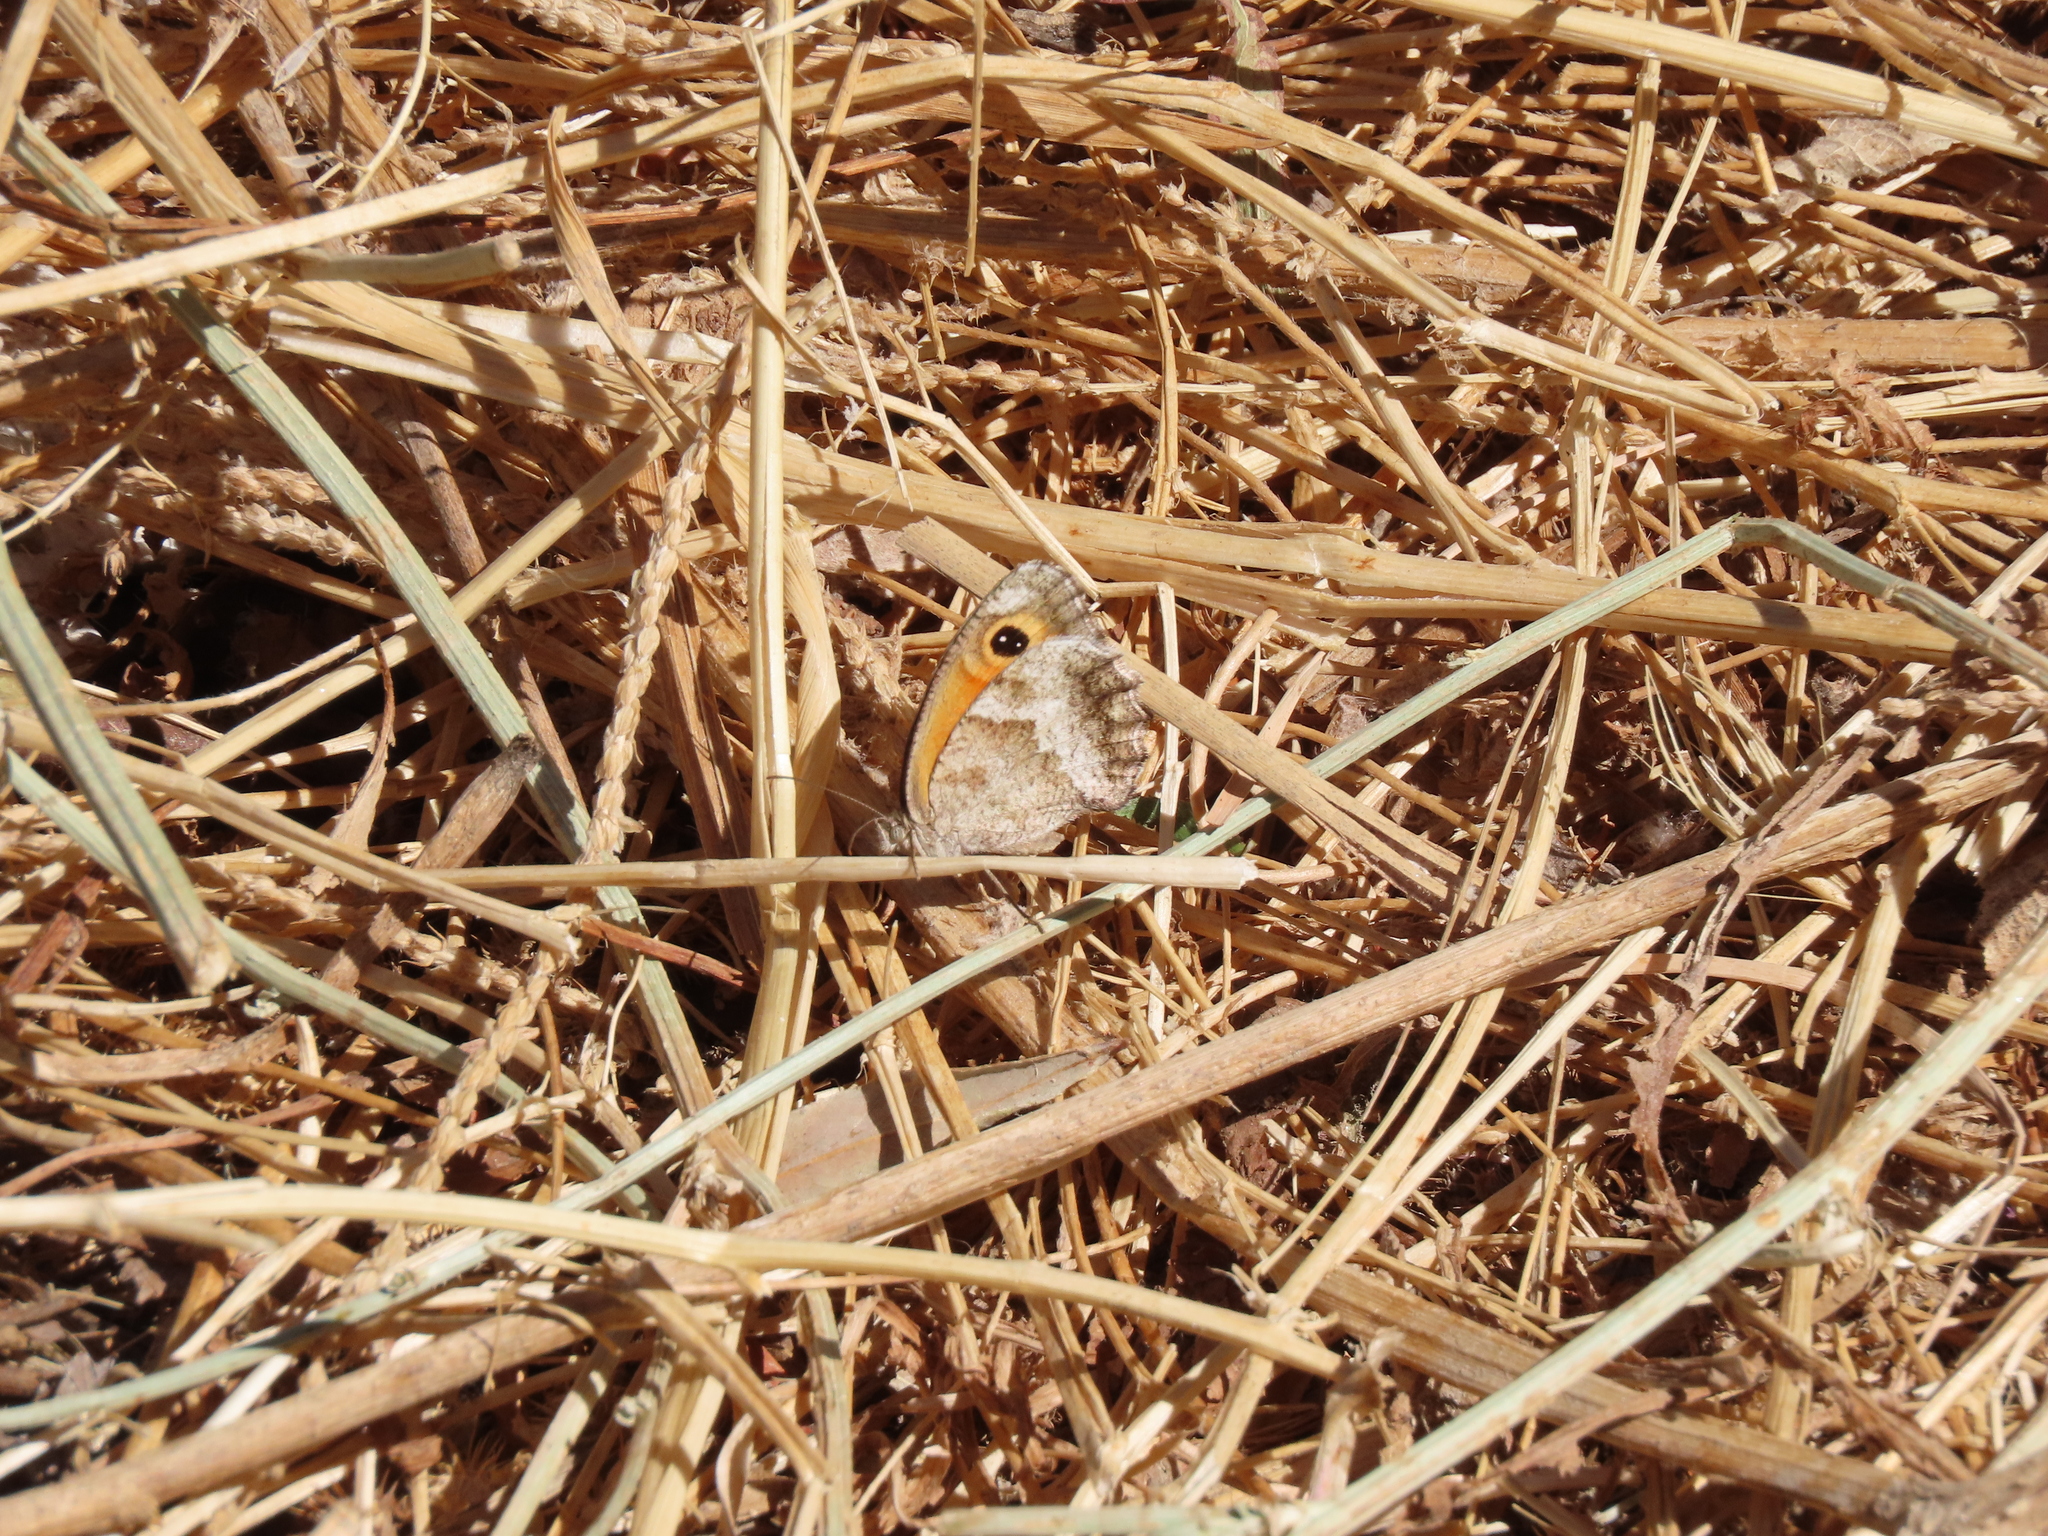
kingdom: Animalia
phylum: Arthropoda
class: Insecta
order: Lepidoptera
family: Nymphalidae
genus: Pyronia
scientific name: Pyronia cecilia
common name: Southern gatekeeper
